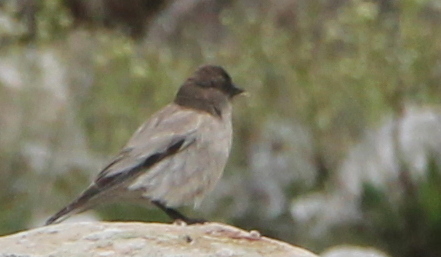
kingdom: Animalia
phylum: Chordata
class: Aves
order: Passeriformes
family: Fringillidae
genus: Leucosticte
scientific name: Leucosticte brandti
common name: Brandt's mountain finch
